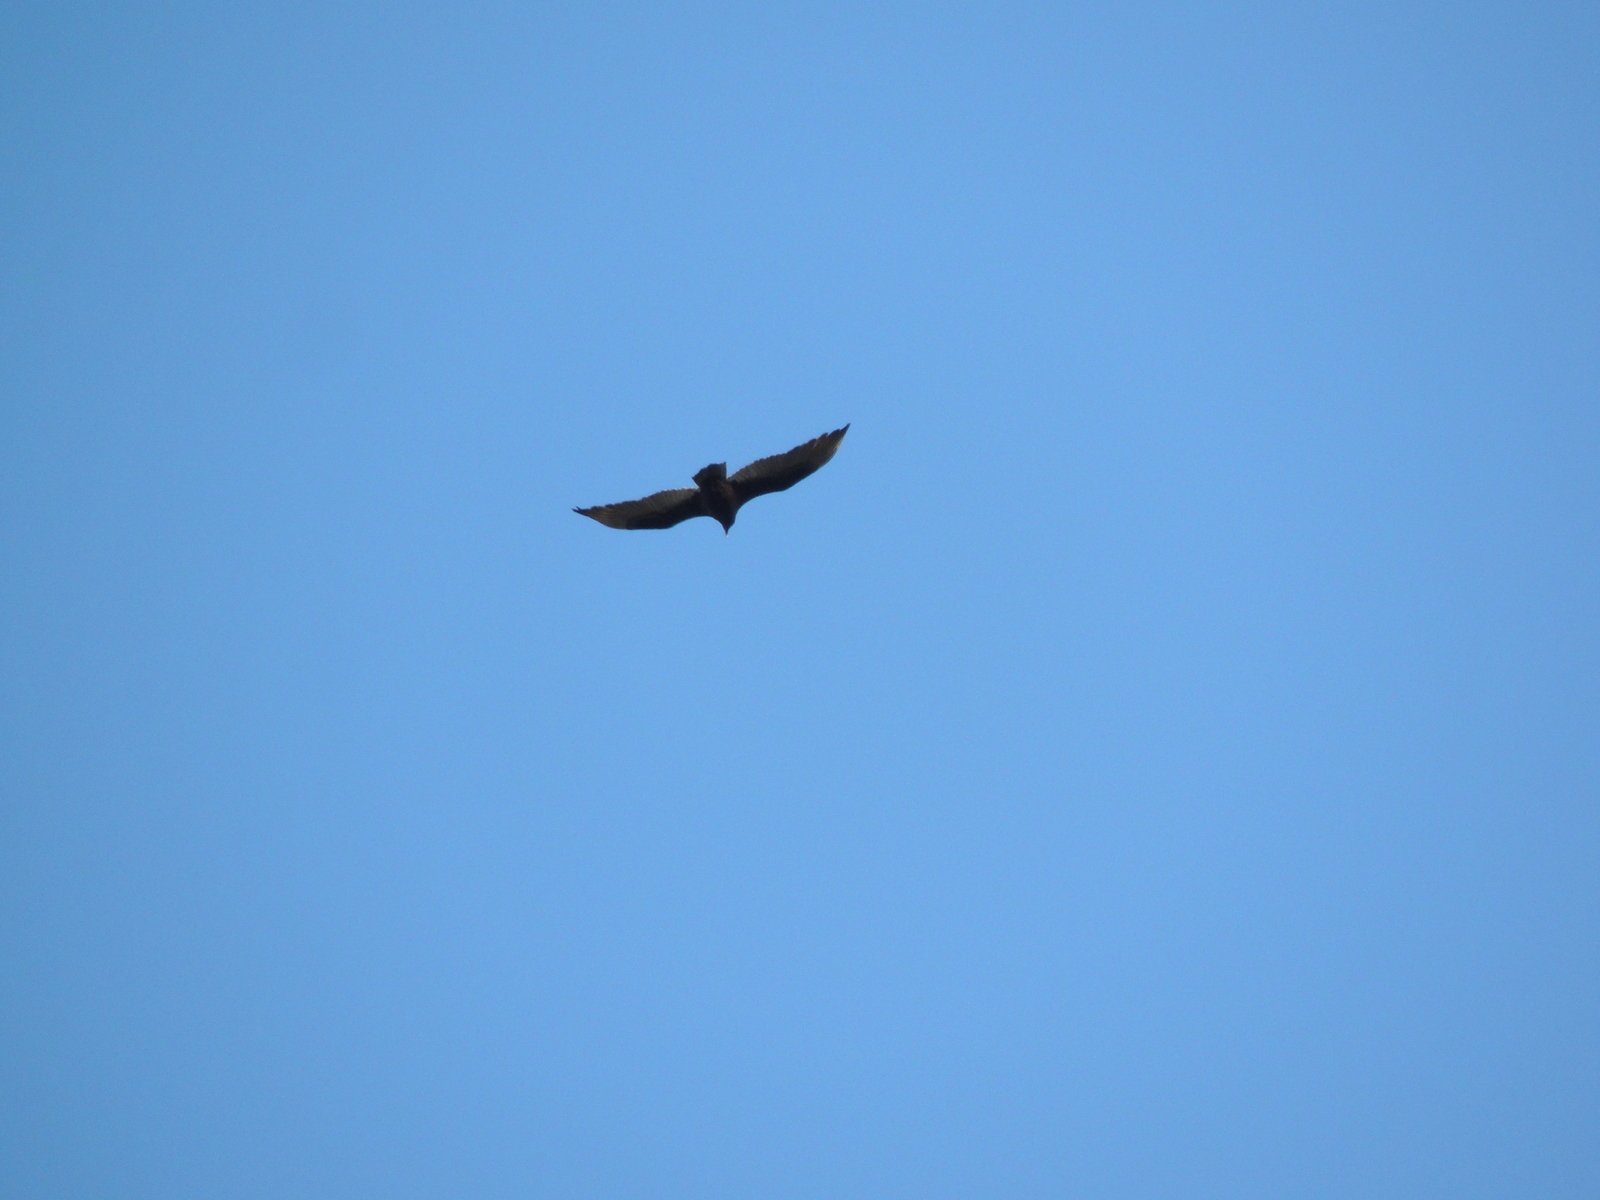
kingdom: Animalia
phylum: Chordata
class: Aves
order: Accipitriformes
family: Cathartidae
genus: Cathartes
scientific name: Cathartes aura
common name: Turkey vulture
